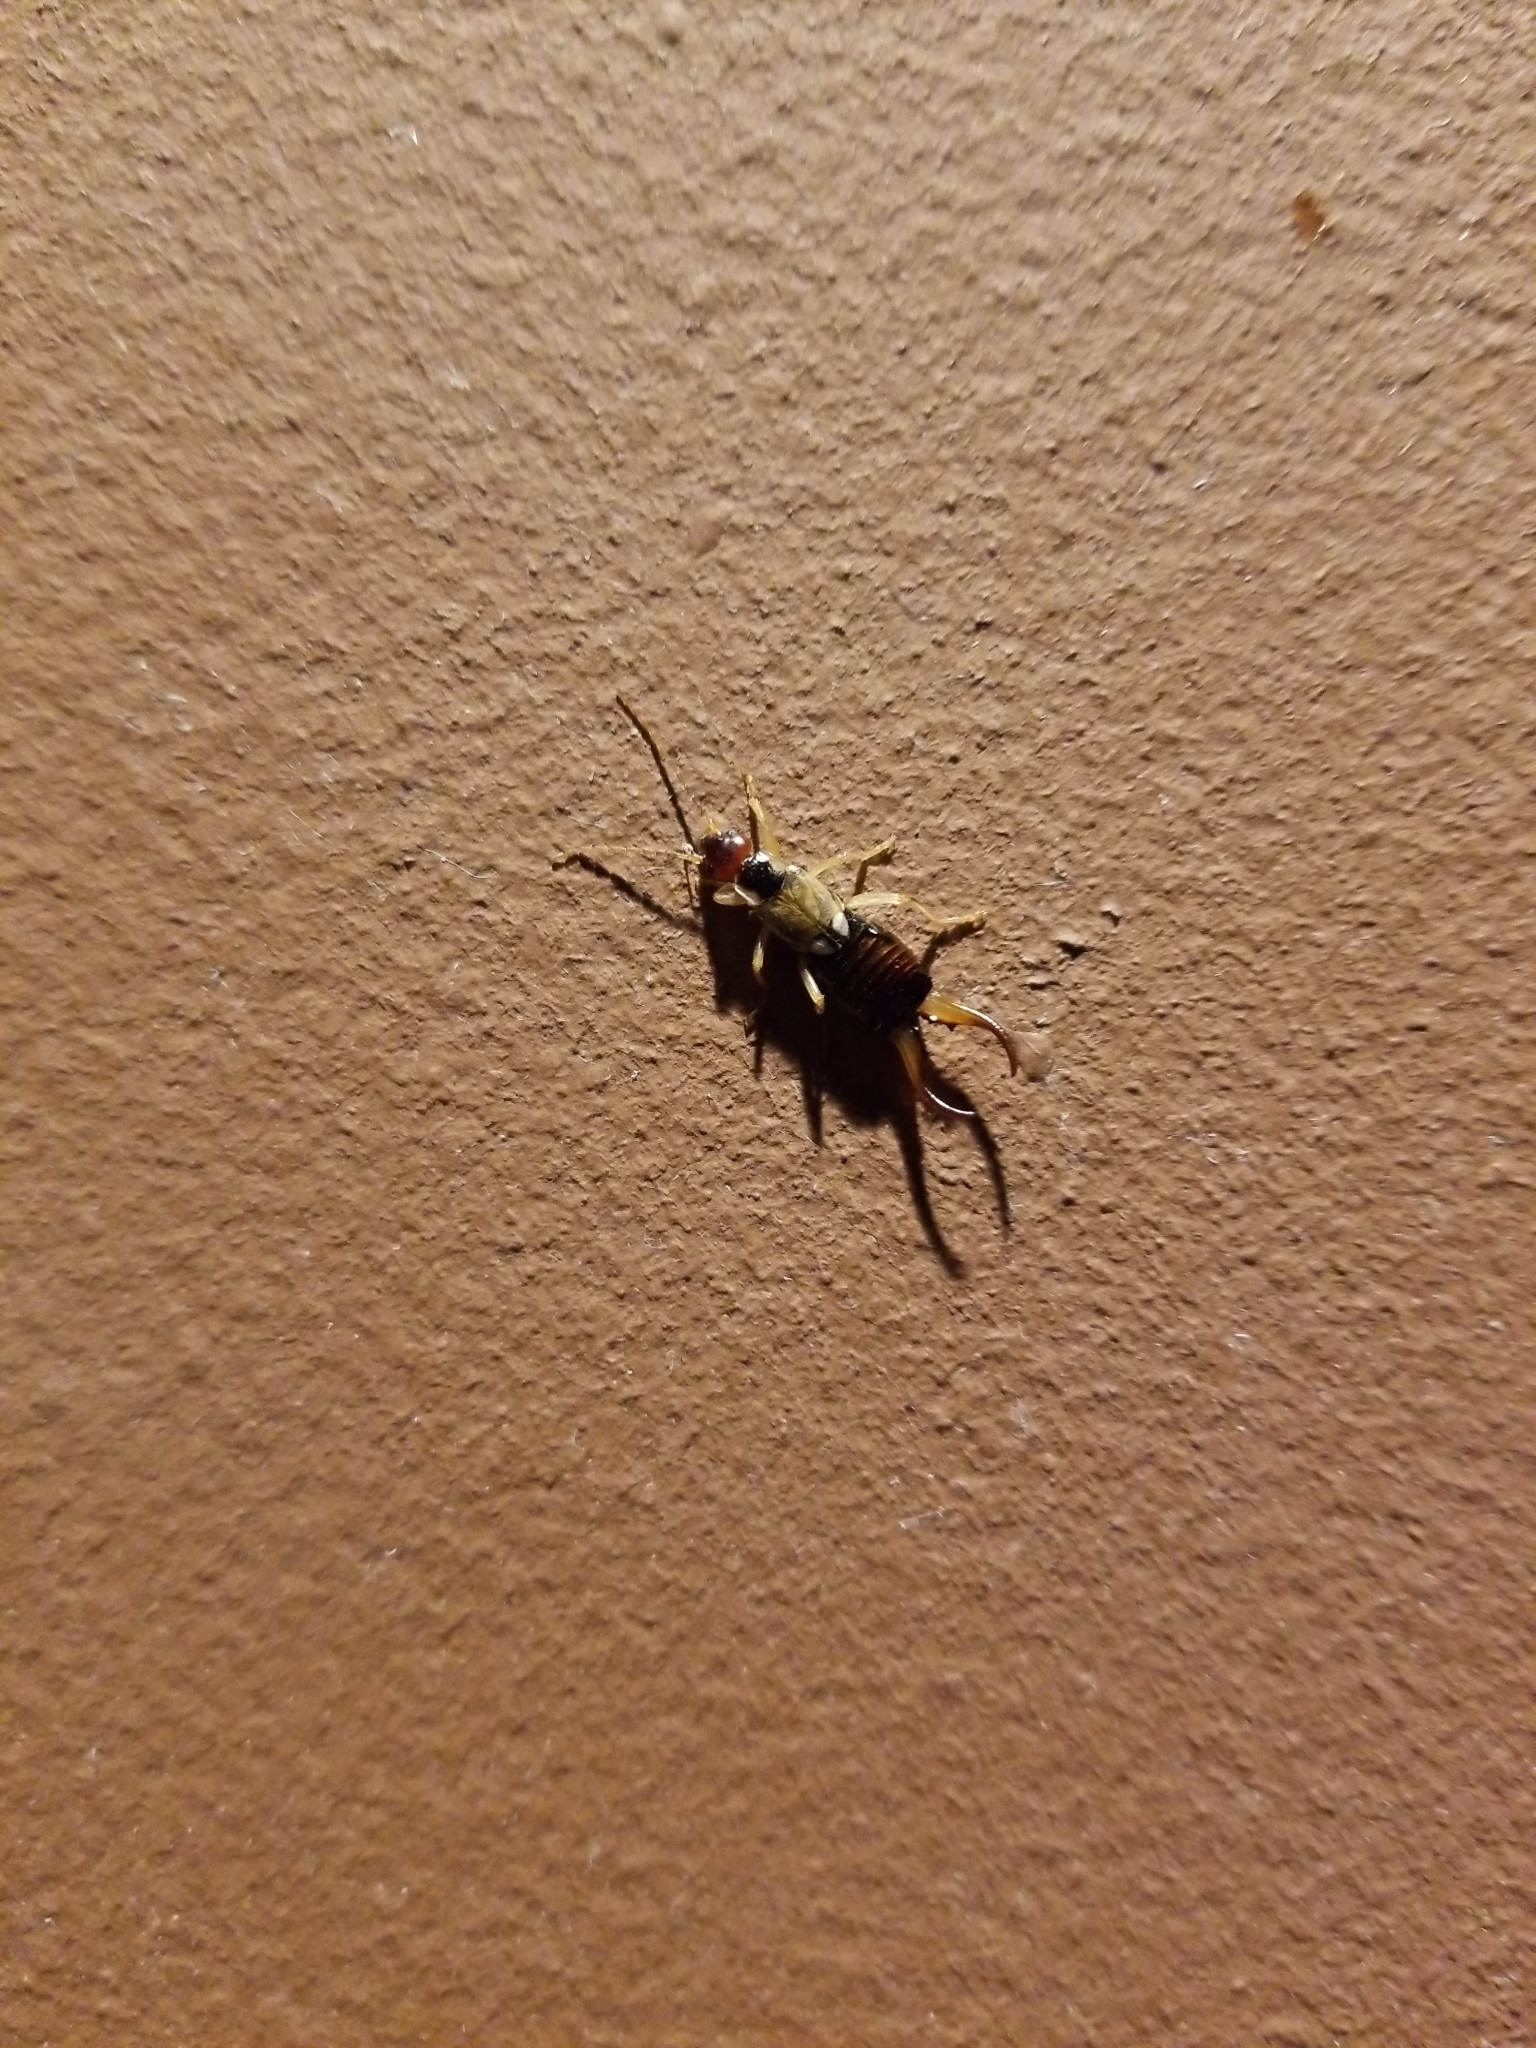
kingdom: Animalia
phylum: Arthropoda
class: Insecta
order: Dermaptera
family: Forficulidae
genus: Forficula
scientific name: Forficula
